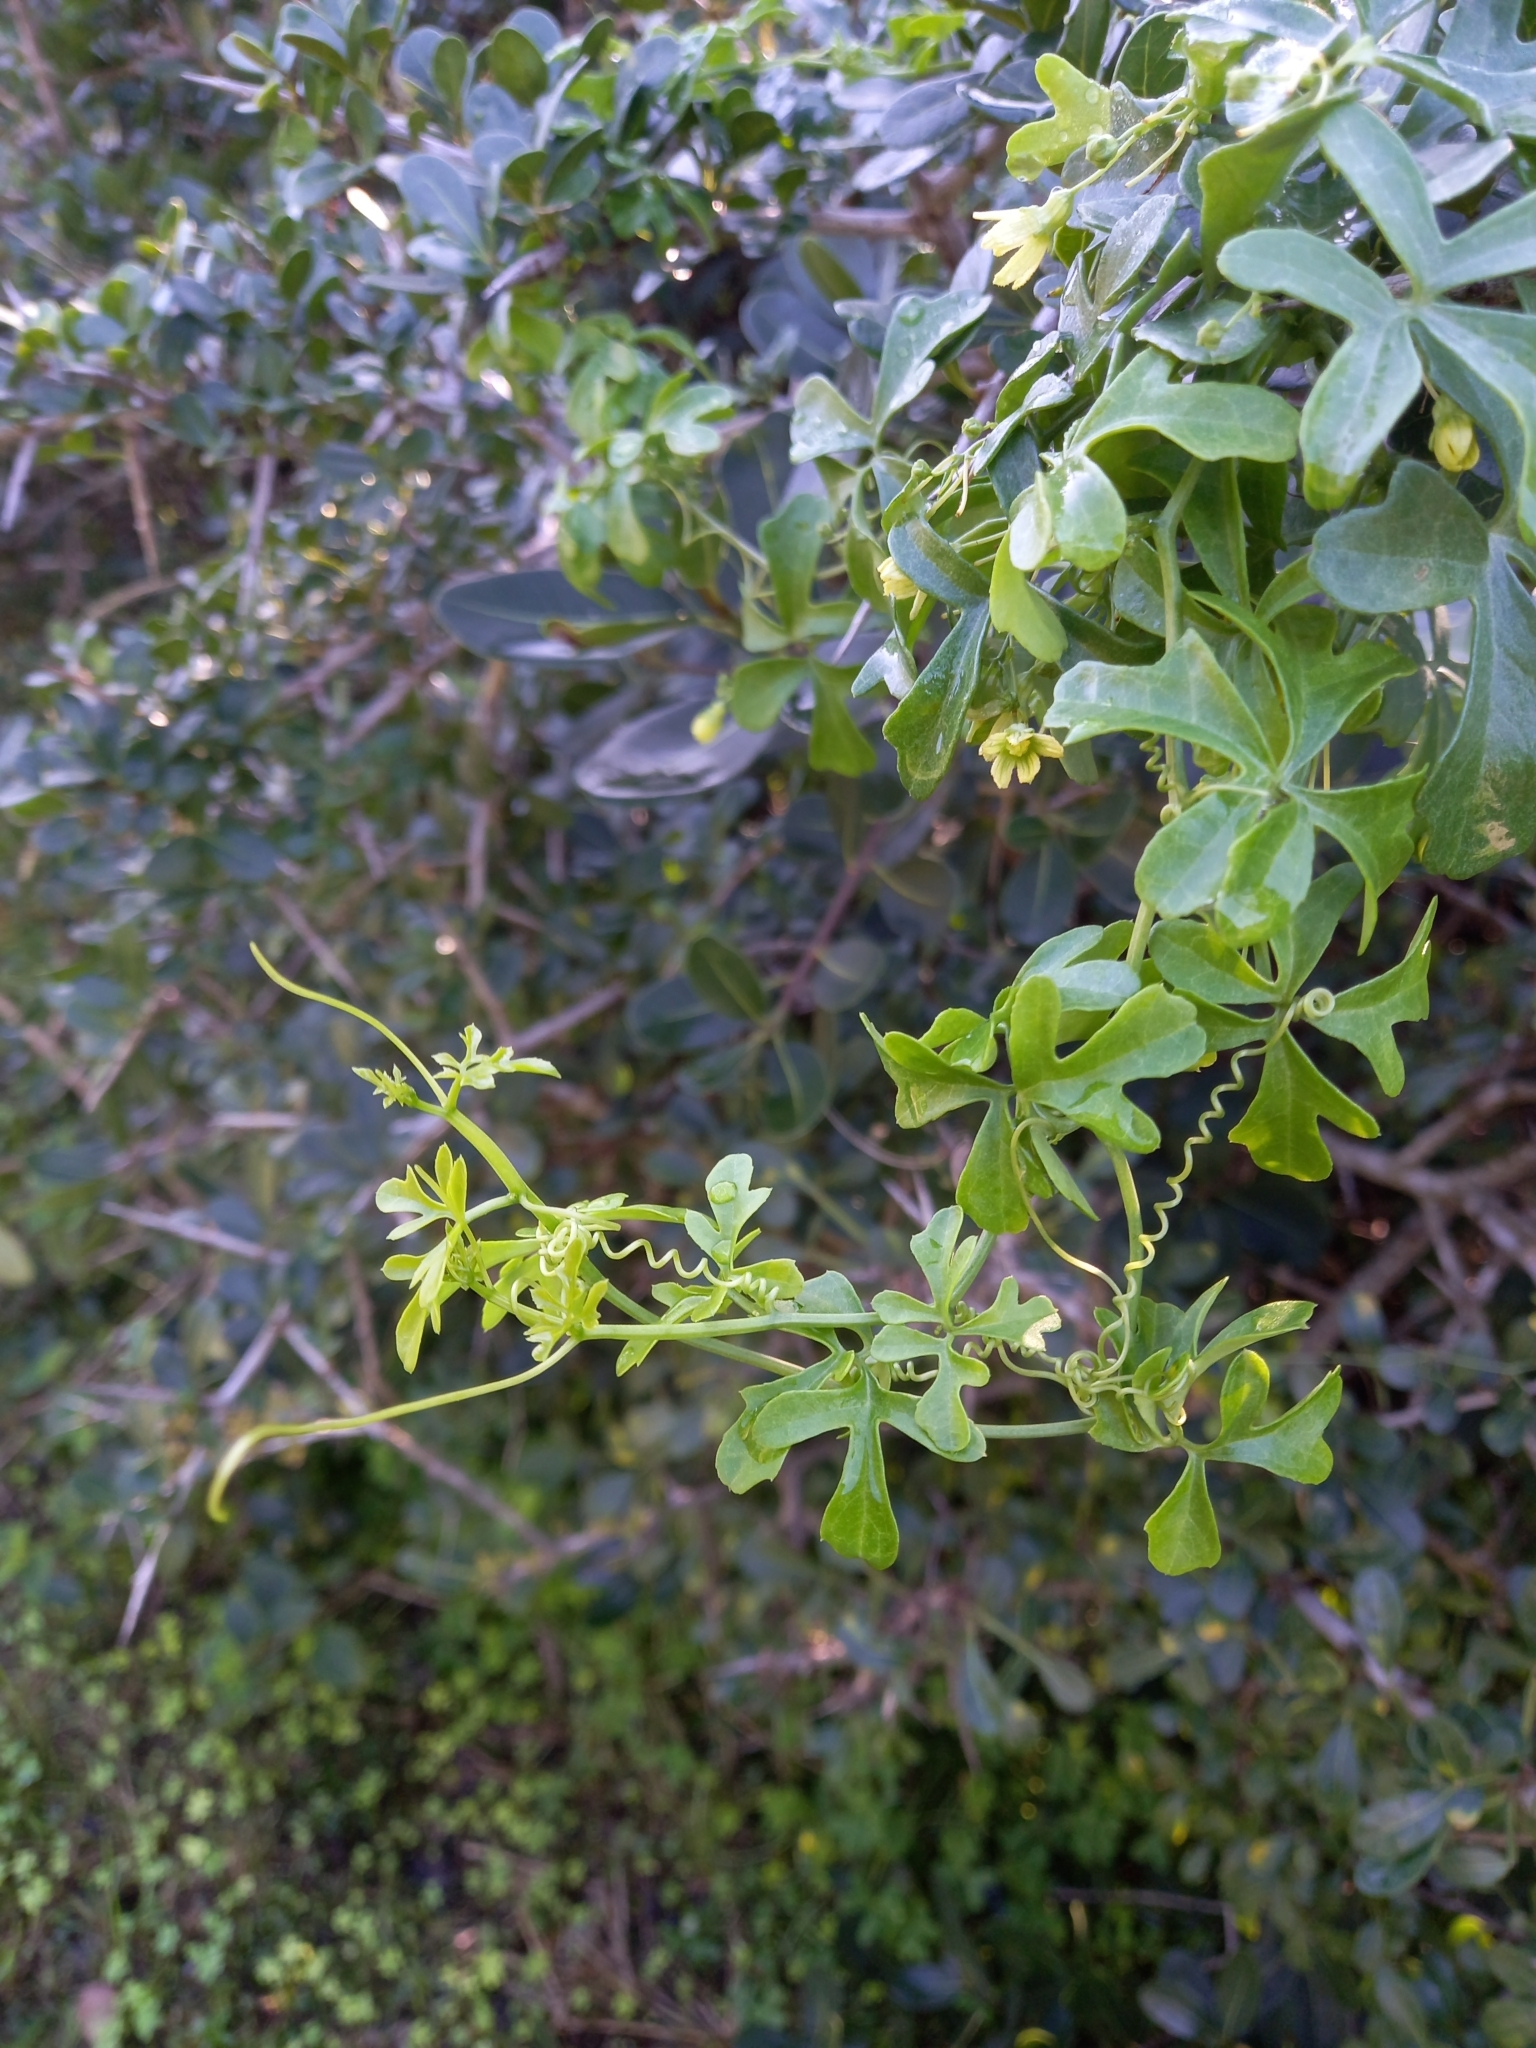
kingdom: Plantae
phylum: Tracheophyta
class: Magnoliopsida
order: Cucurbitales
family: Cucurbitaceae
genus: Kedrostis
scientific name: Kedrostis nana
